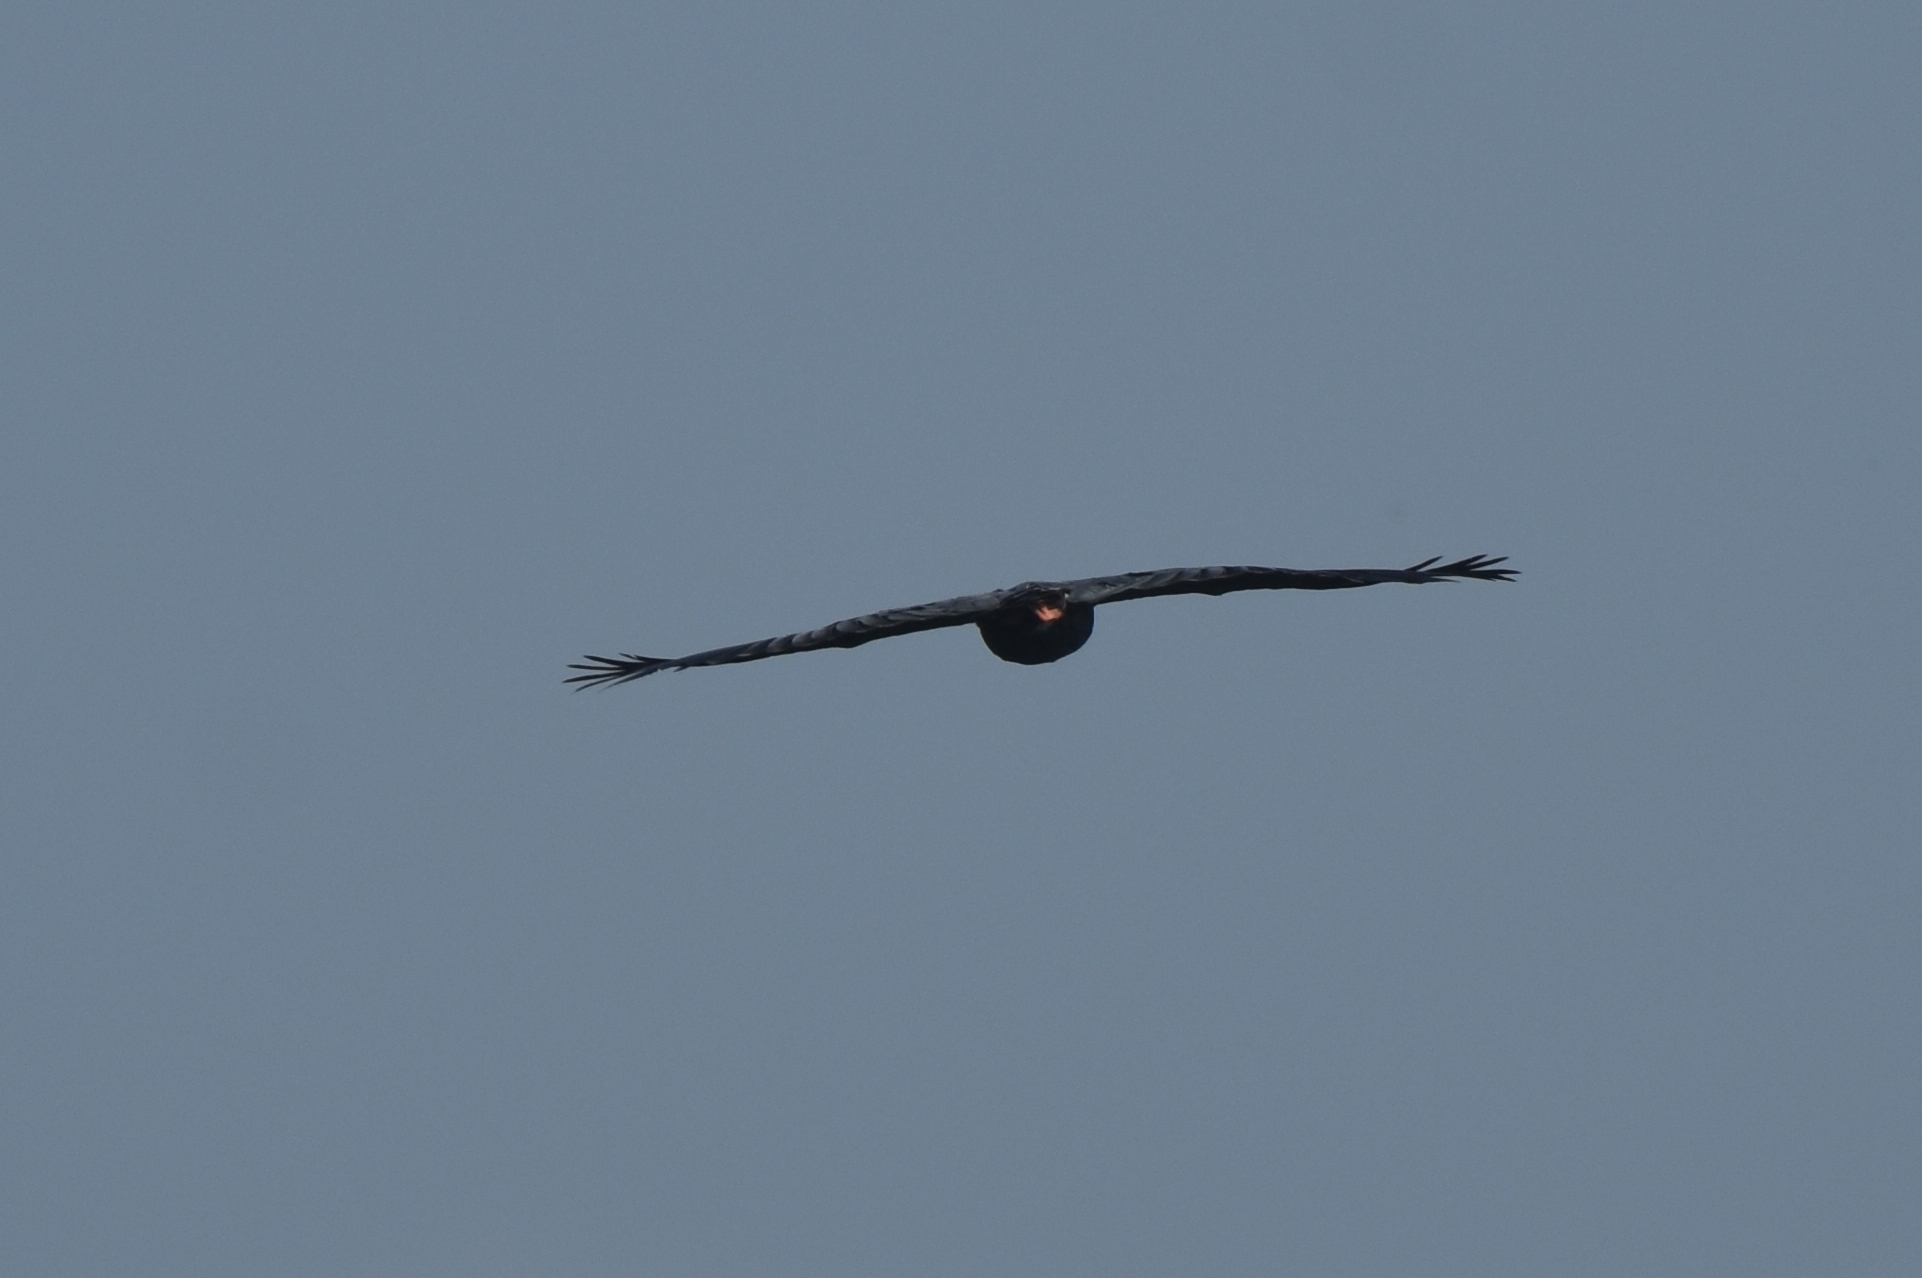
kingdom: Animalia
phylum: Chordata
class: Aves
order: Accipitriformes
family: Accipitridae
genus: Geranospiza
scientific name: Geranospiza caerulescens
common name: Crane hawk
